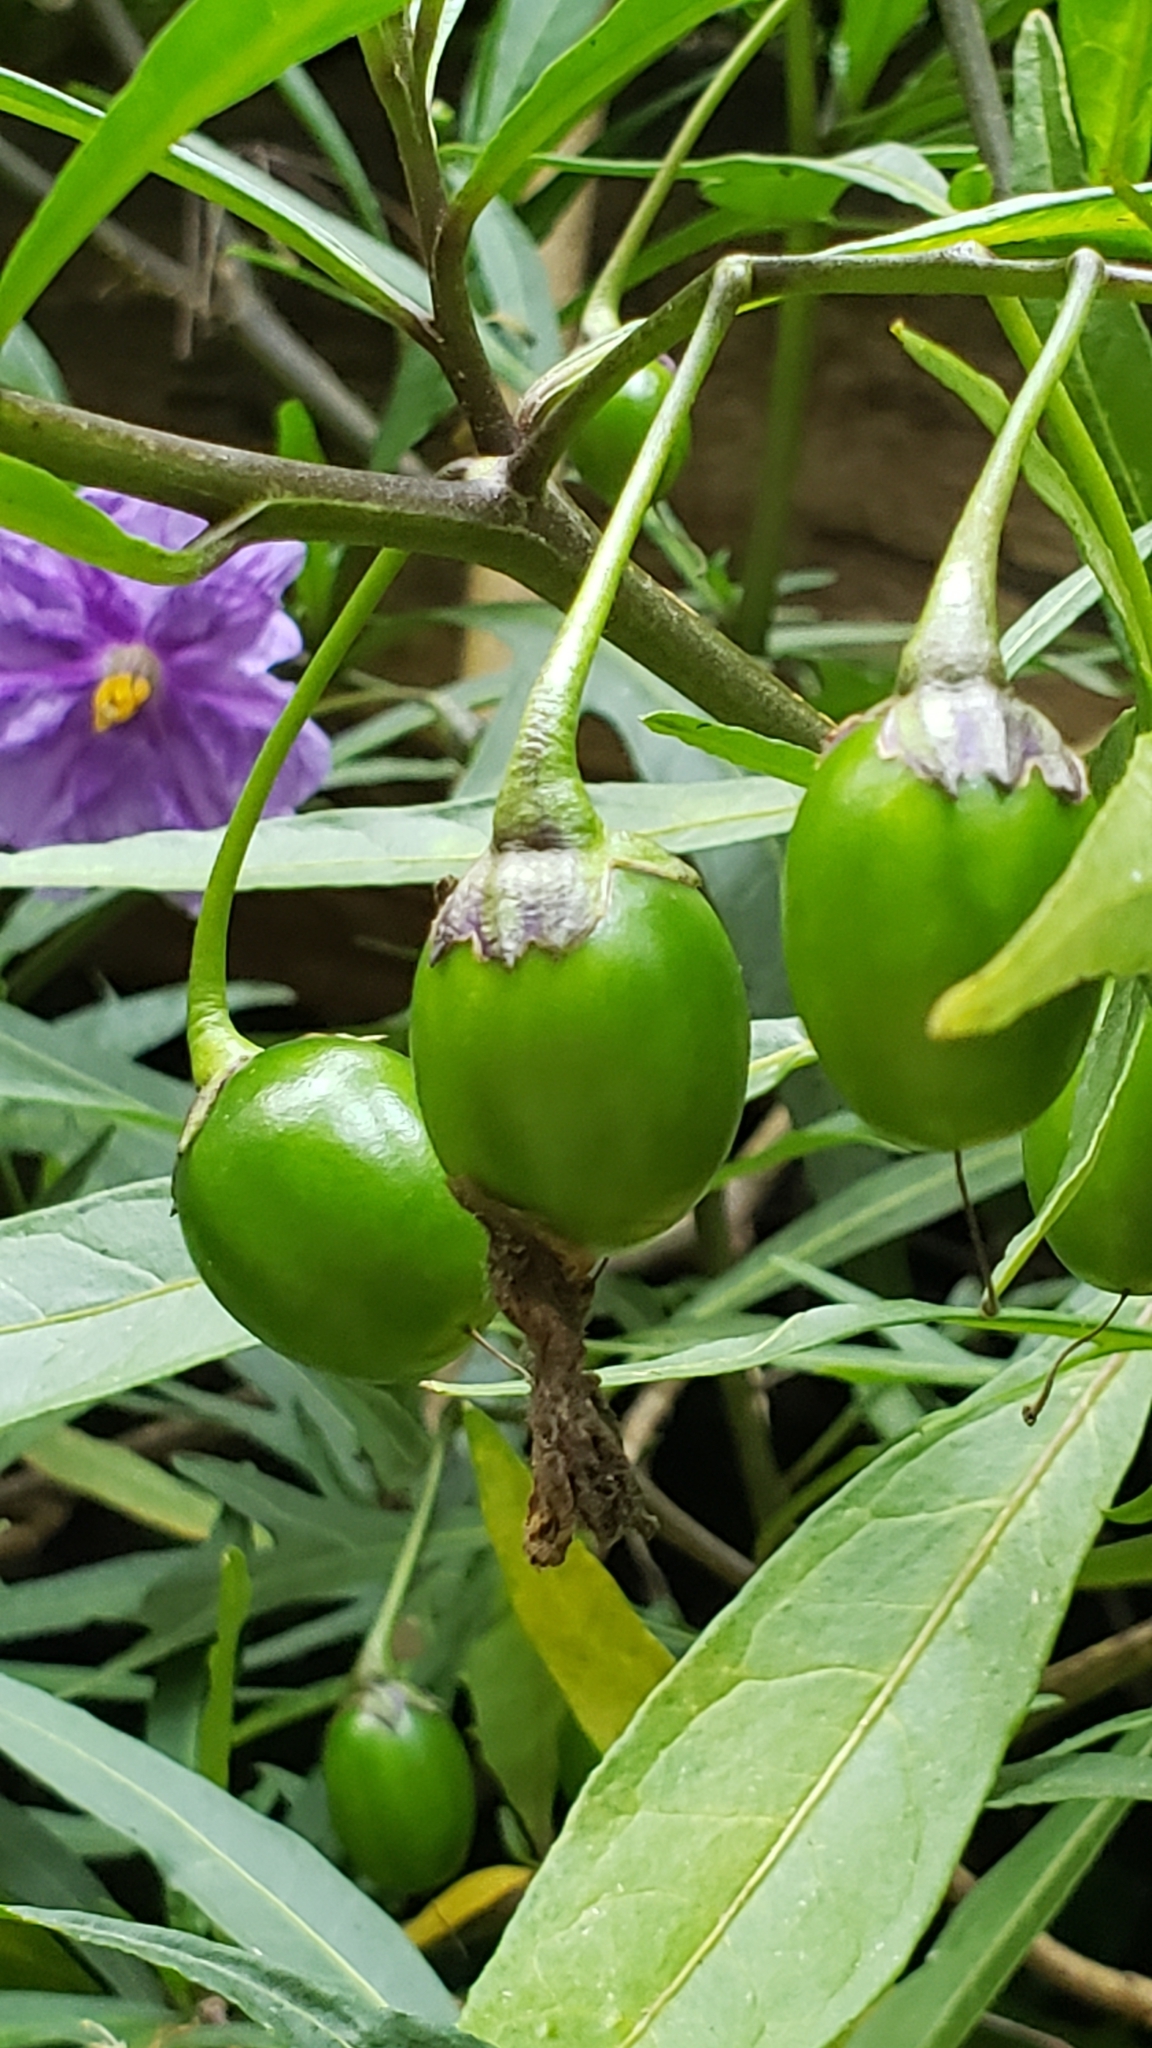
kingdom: Plantae
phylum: Tracheophyta
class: Magnoliopsida
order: Solanales
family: Solanaceae
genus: Solanum
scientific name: Solanum laciniatum
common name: Kangaroo-apple
